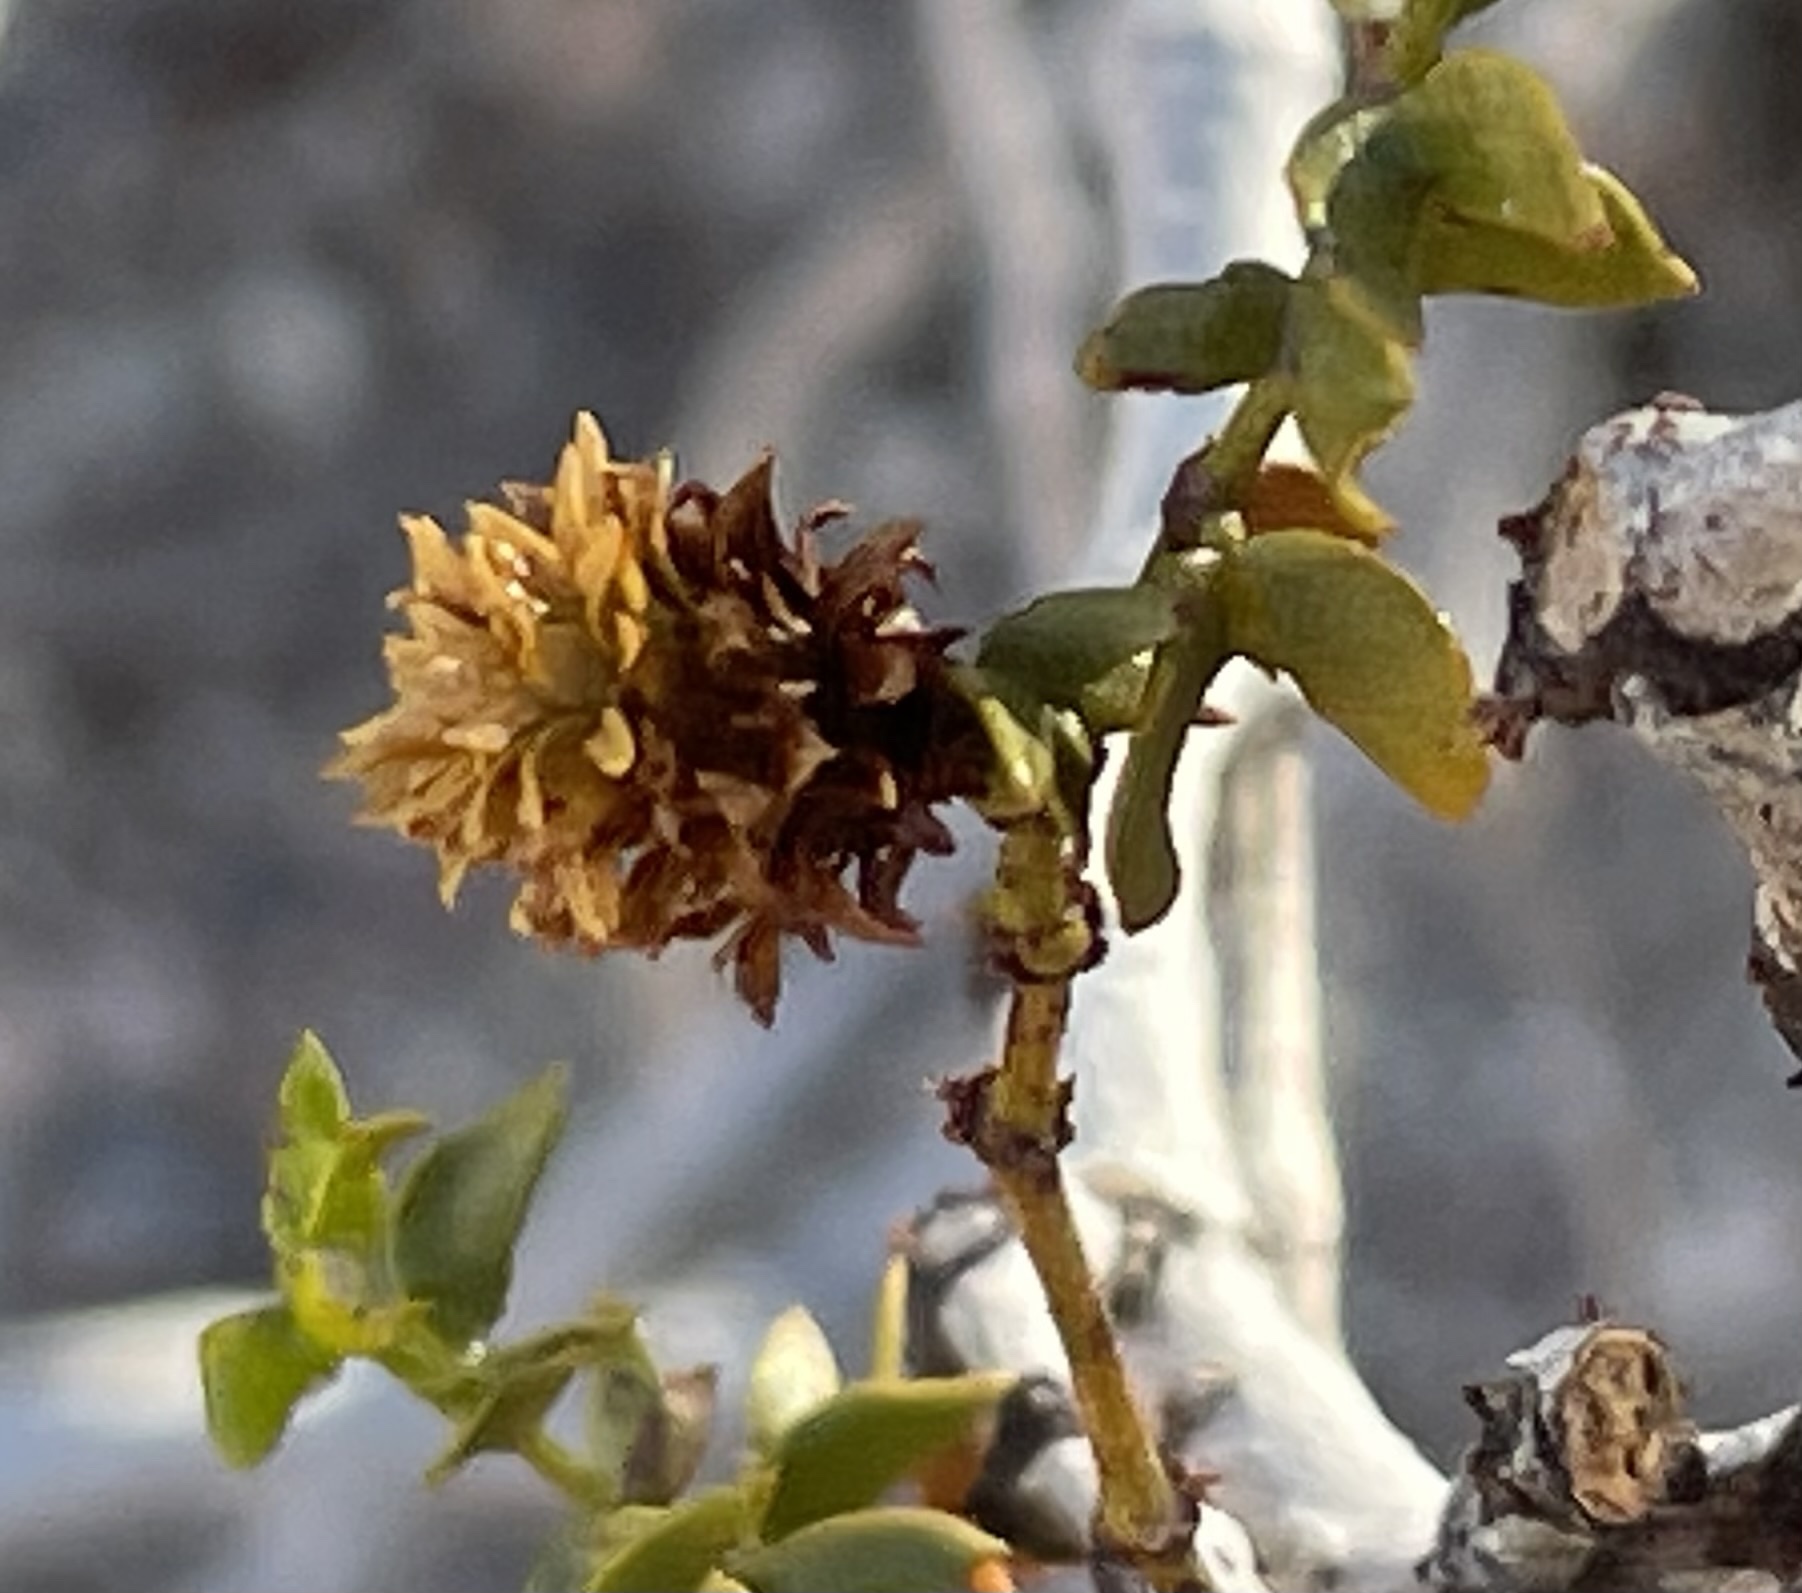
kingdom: Animalia
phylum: Arthropoda
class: Insecta
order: Diptera
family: Cecidomyiidae
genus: Asphondylia
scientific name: Asphondylia rosetta
